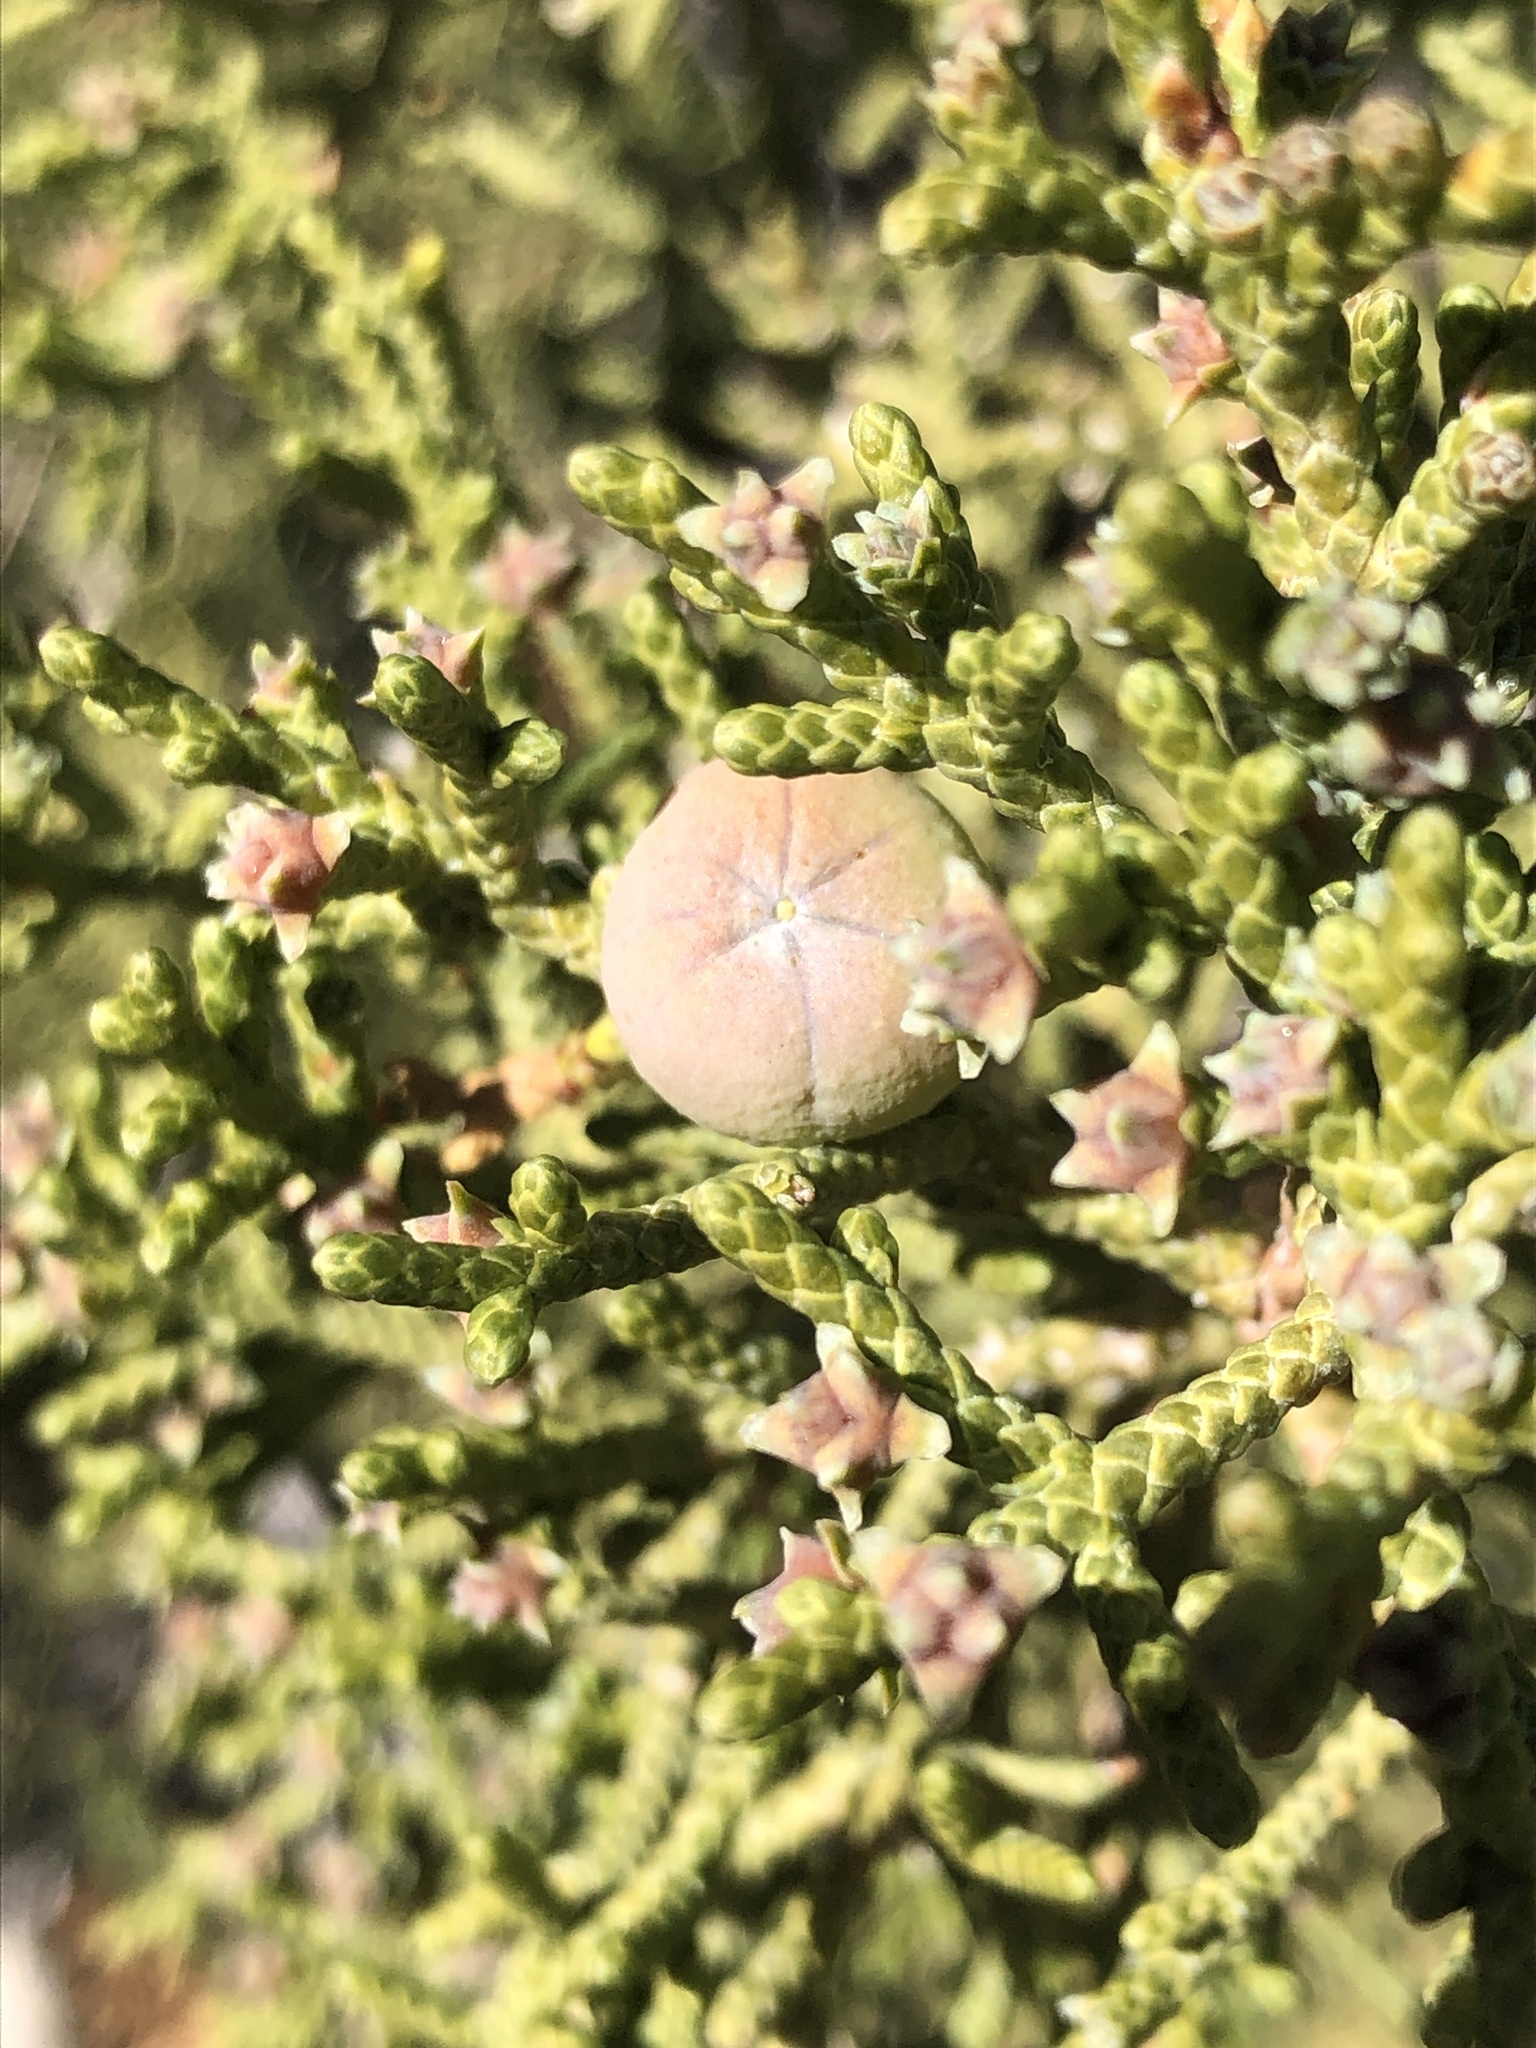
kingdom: Plantae
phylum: Tracheophyta
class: Pinopsida
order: Pinales
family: Cupressaceae
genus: Juniperus
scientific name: Juniperus californica
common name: California juniper
